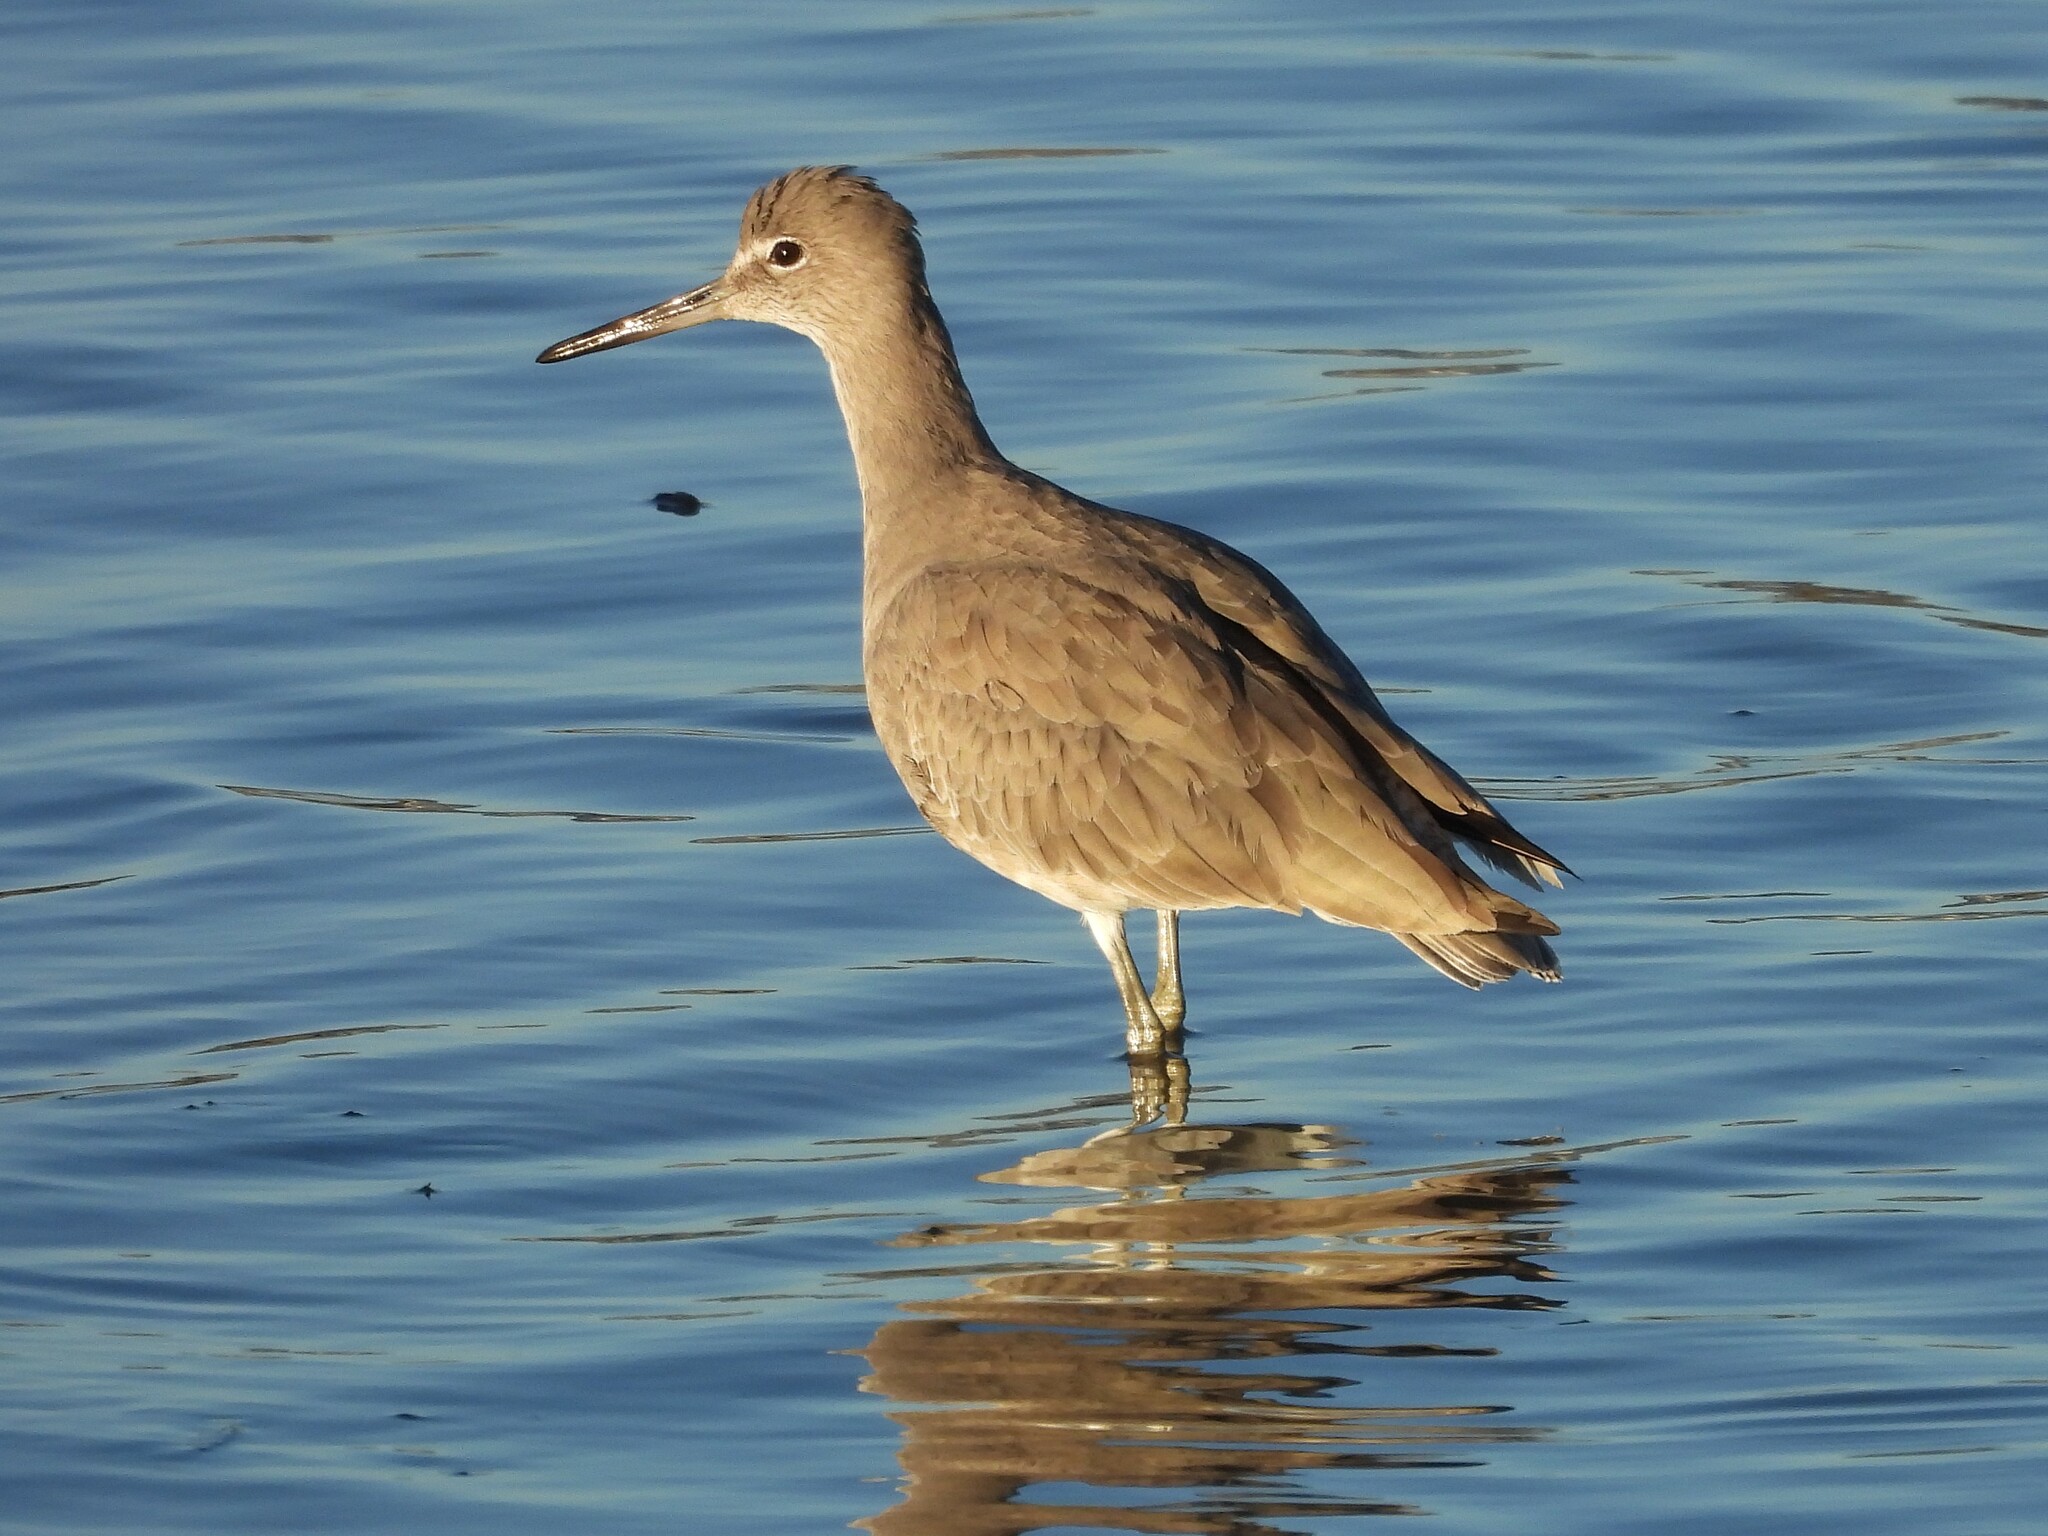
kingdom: Animalia
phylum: Chordata
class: Aves
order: Charadriiformes
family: Scolopacidae
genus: Tringa
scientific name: Tringa semipalmata
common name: Willet
